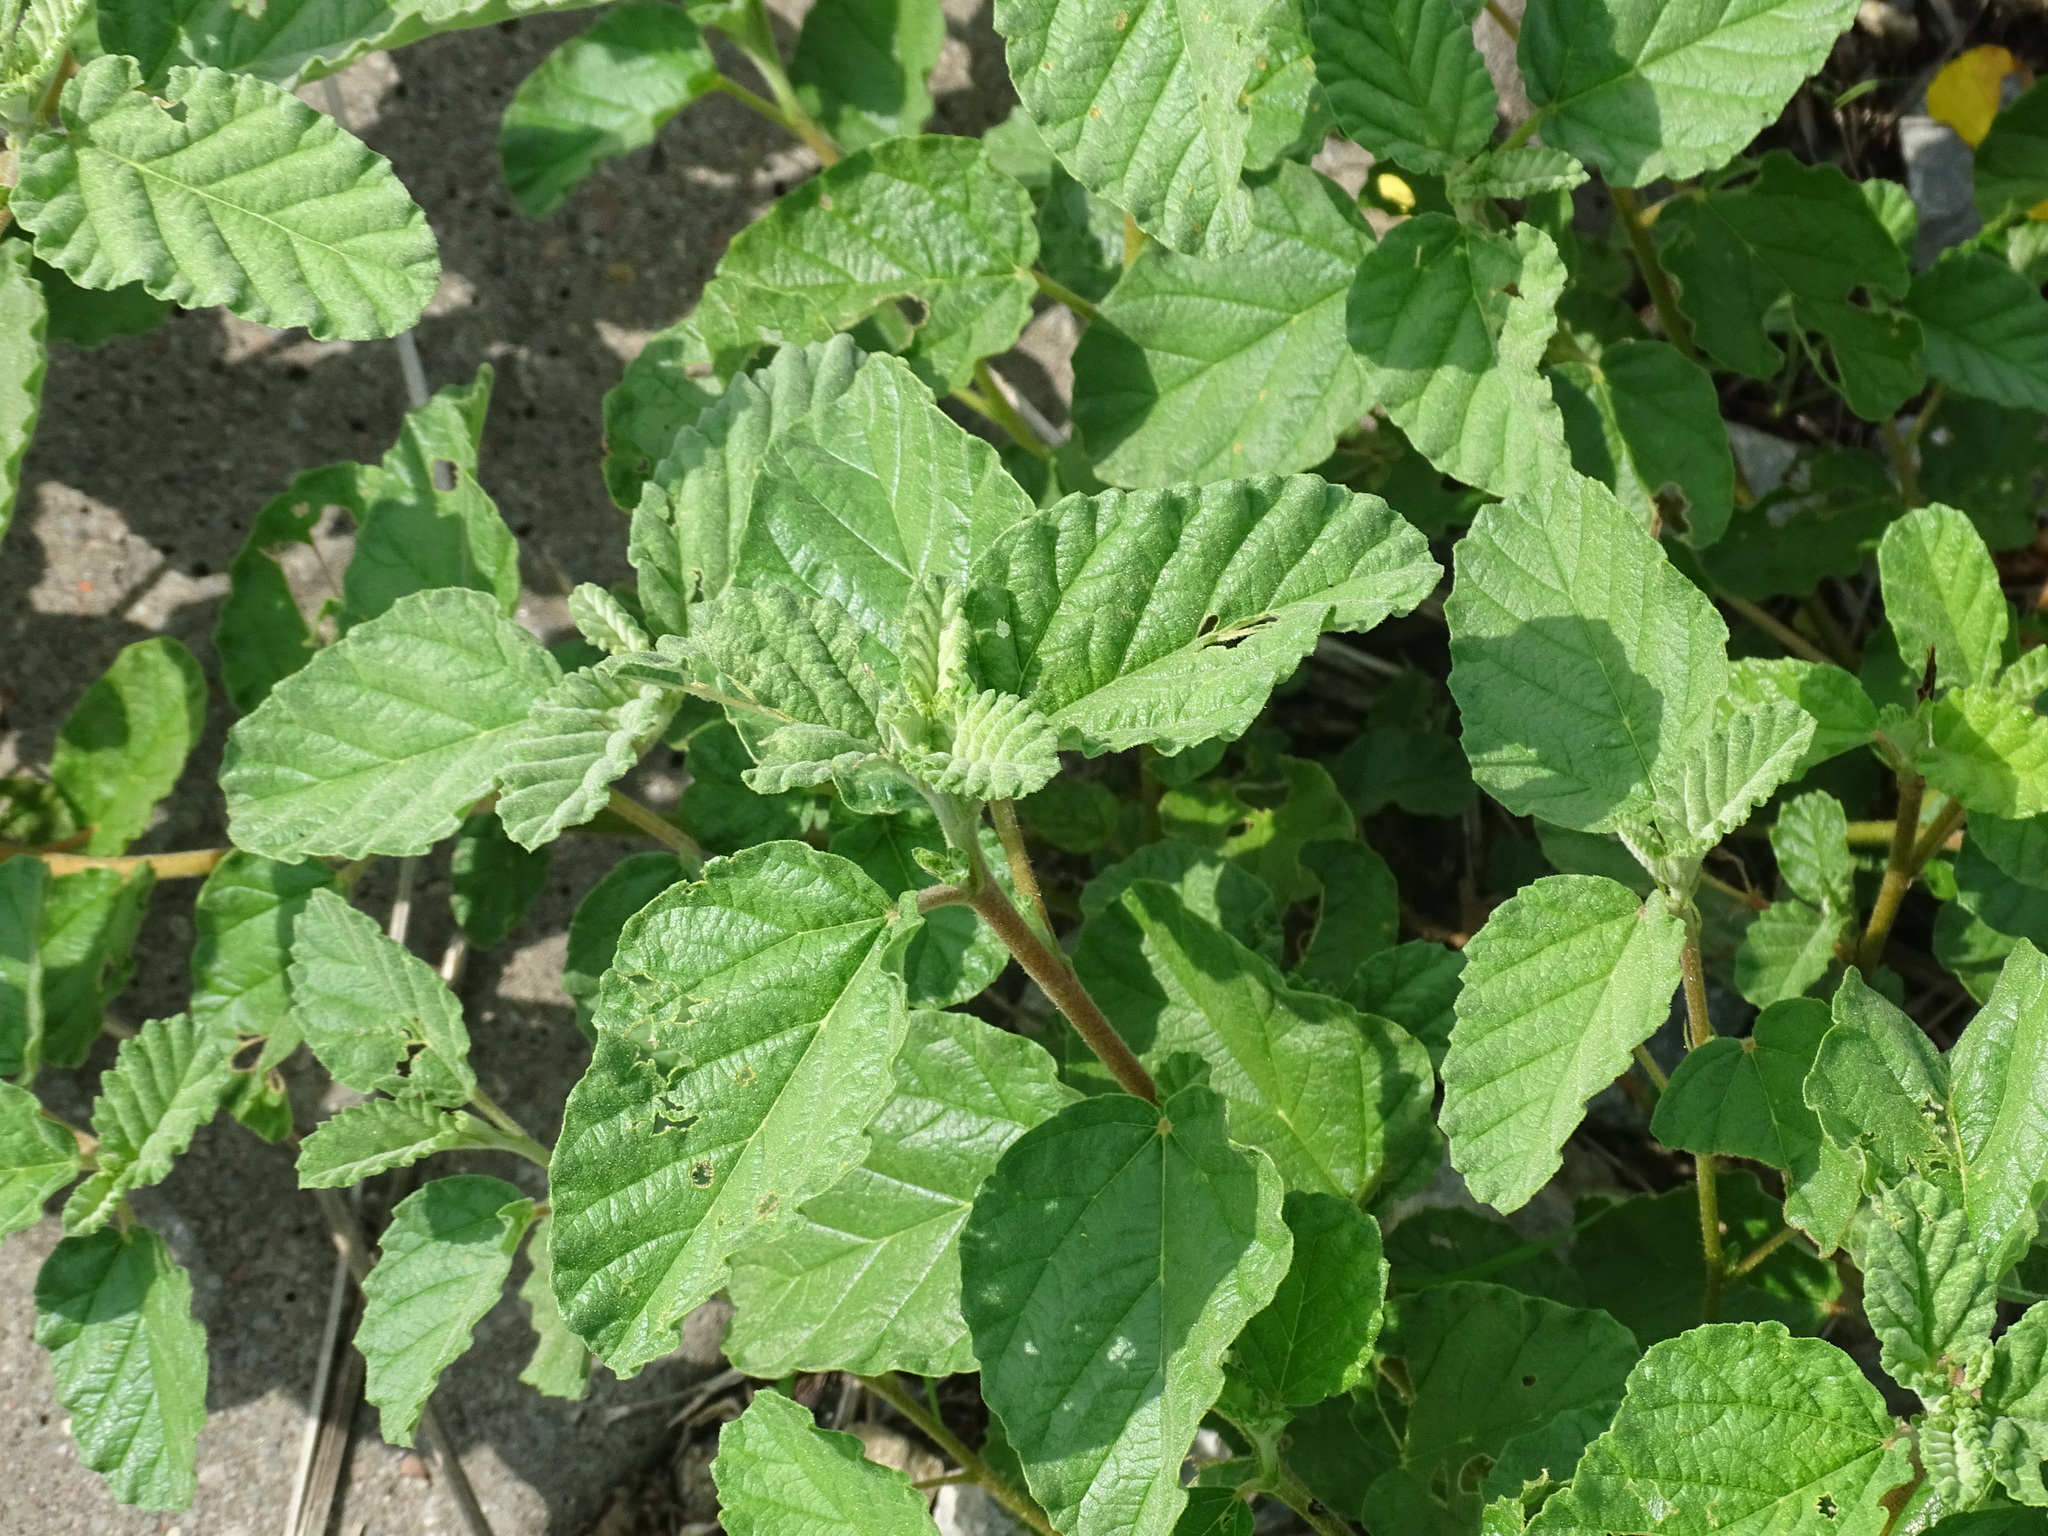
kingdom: Plantae
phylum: Tracheophyta
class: Magnoliopsida
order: Malvales
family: Malvaceae
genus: Waltheria
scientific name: Waltheria indica
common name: Leather-coat
